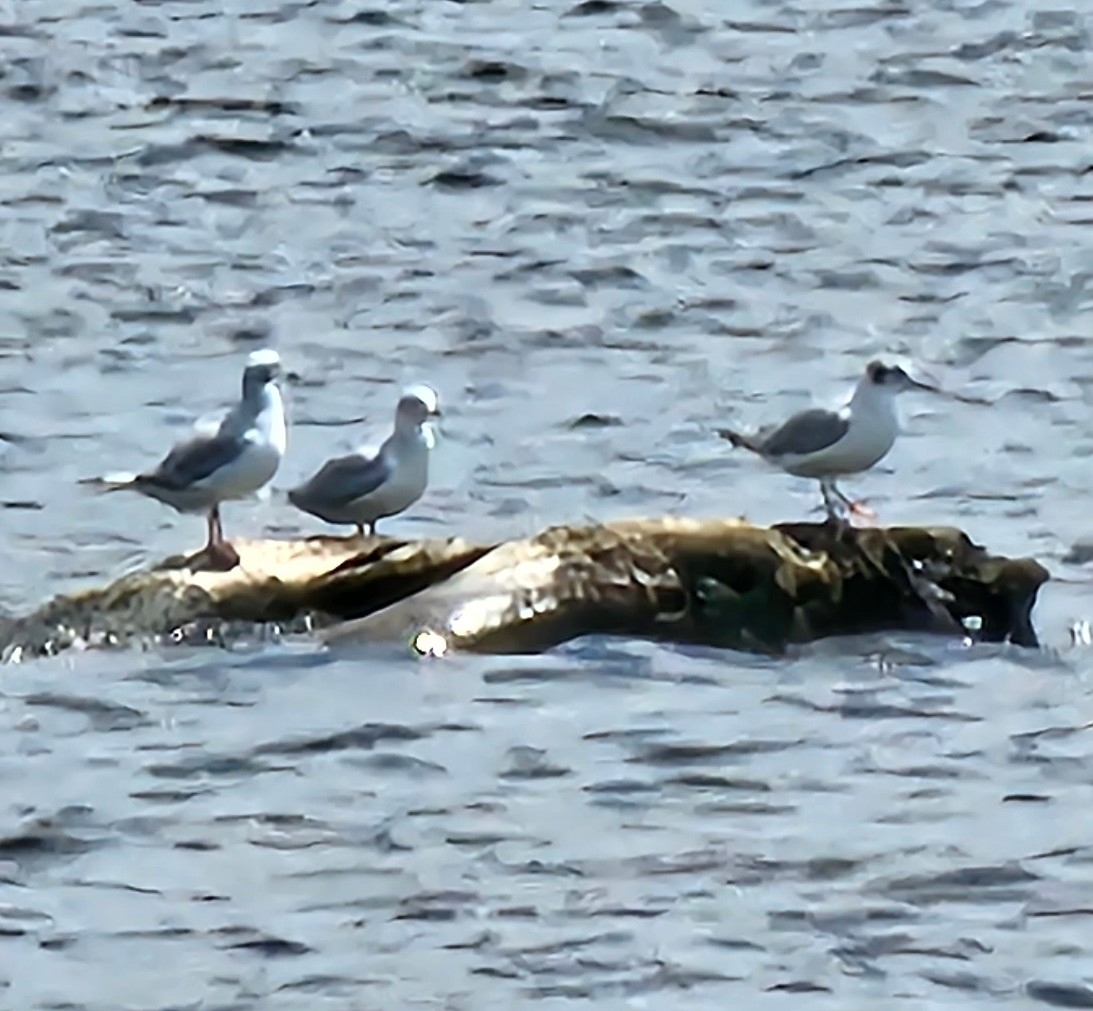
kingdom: Animalia
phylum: Chordata
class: Aves
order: Charadriiformes
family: Laridae
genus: Chroicocephalus
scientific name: Chroicocephalus philadelphia
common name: Bonaparte's gull
